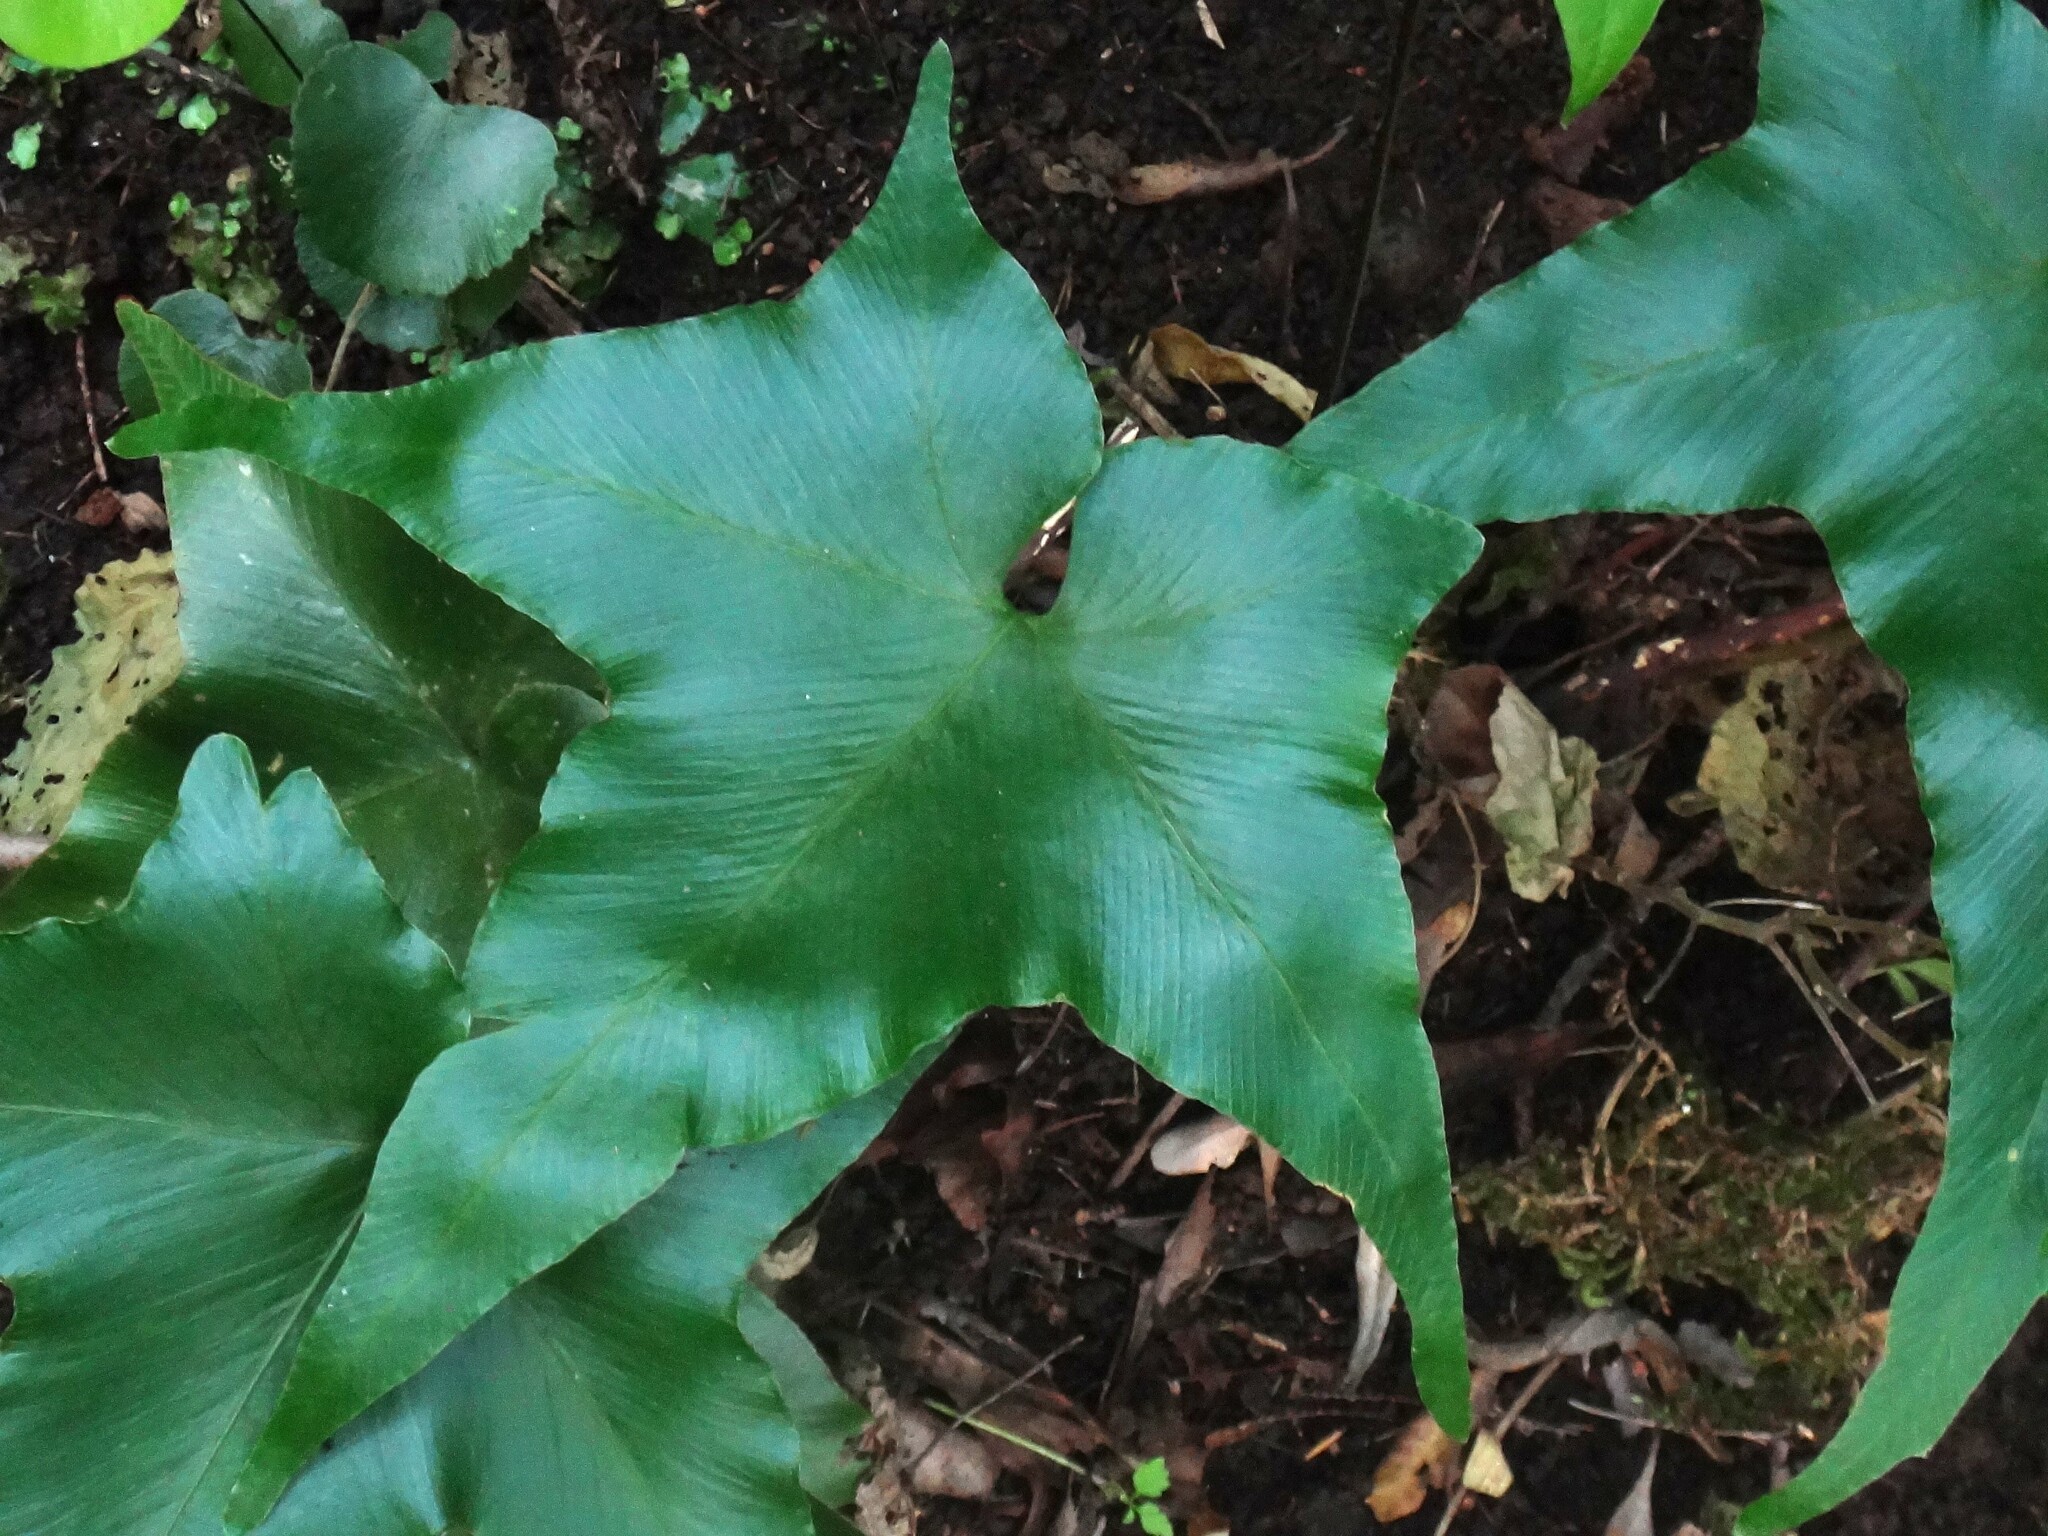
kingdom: Plantae
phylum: Tracheophyta
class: Polypodiopsida
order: Polypodiales
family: Aspleniaceae
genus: Asplenium
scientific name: Asplenium hemionitis
